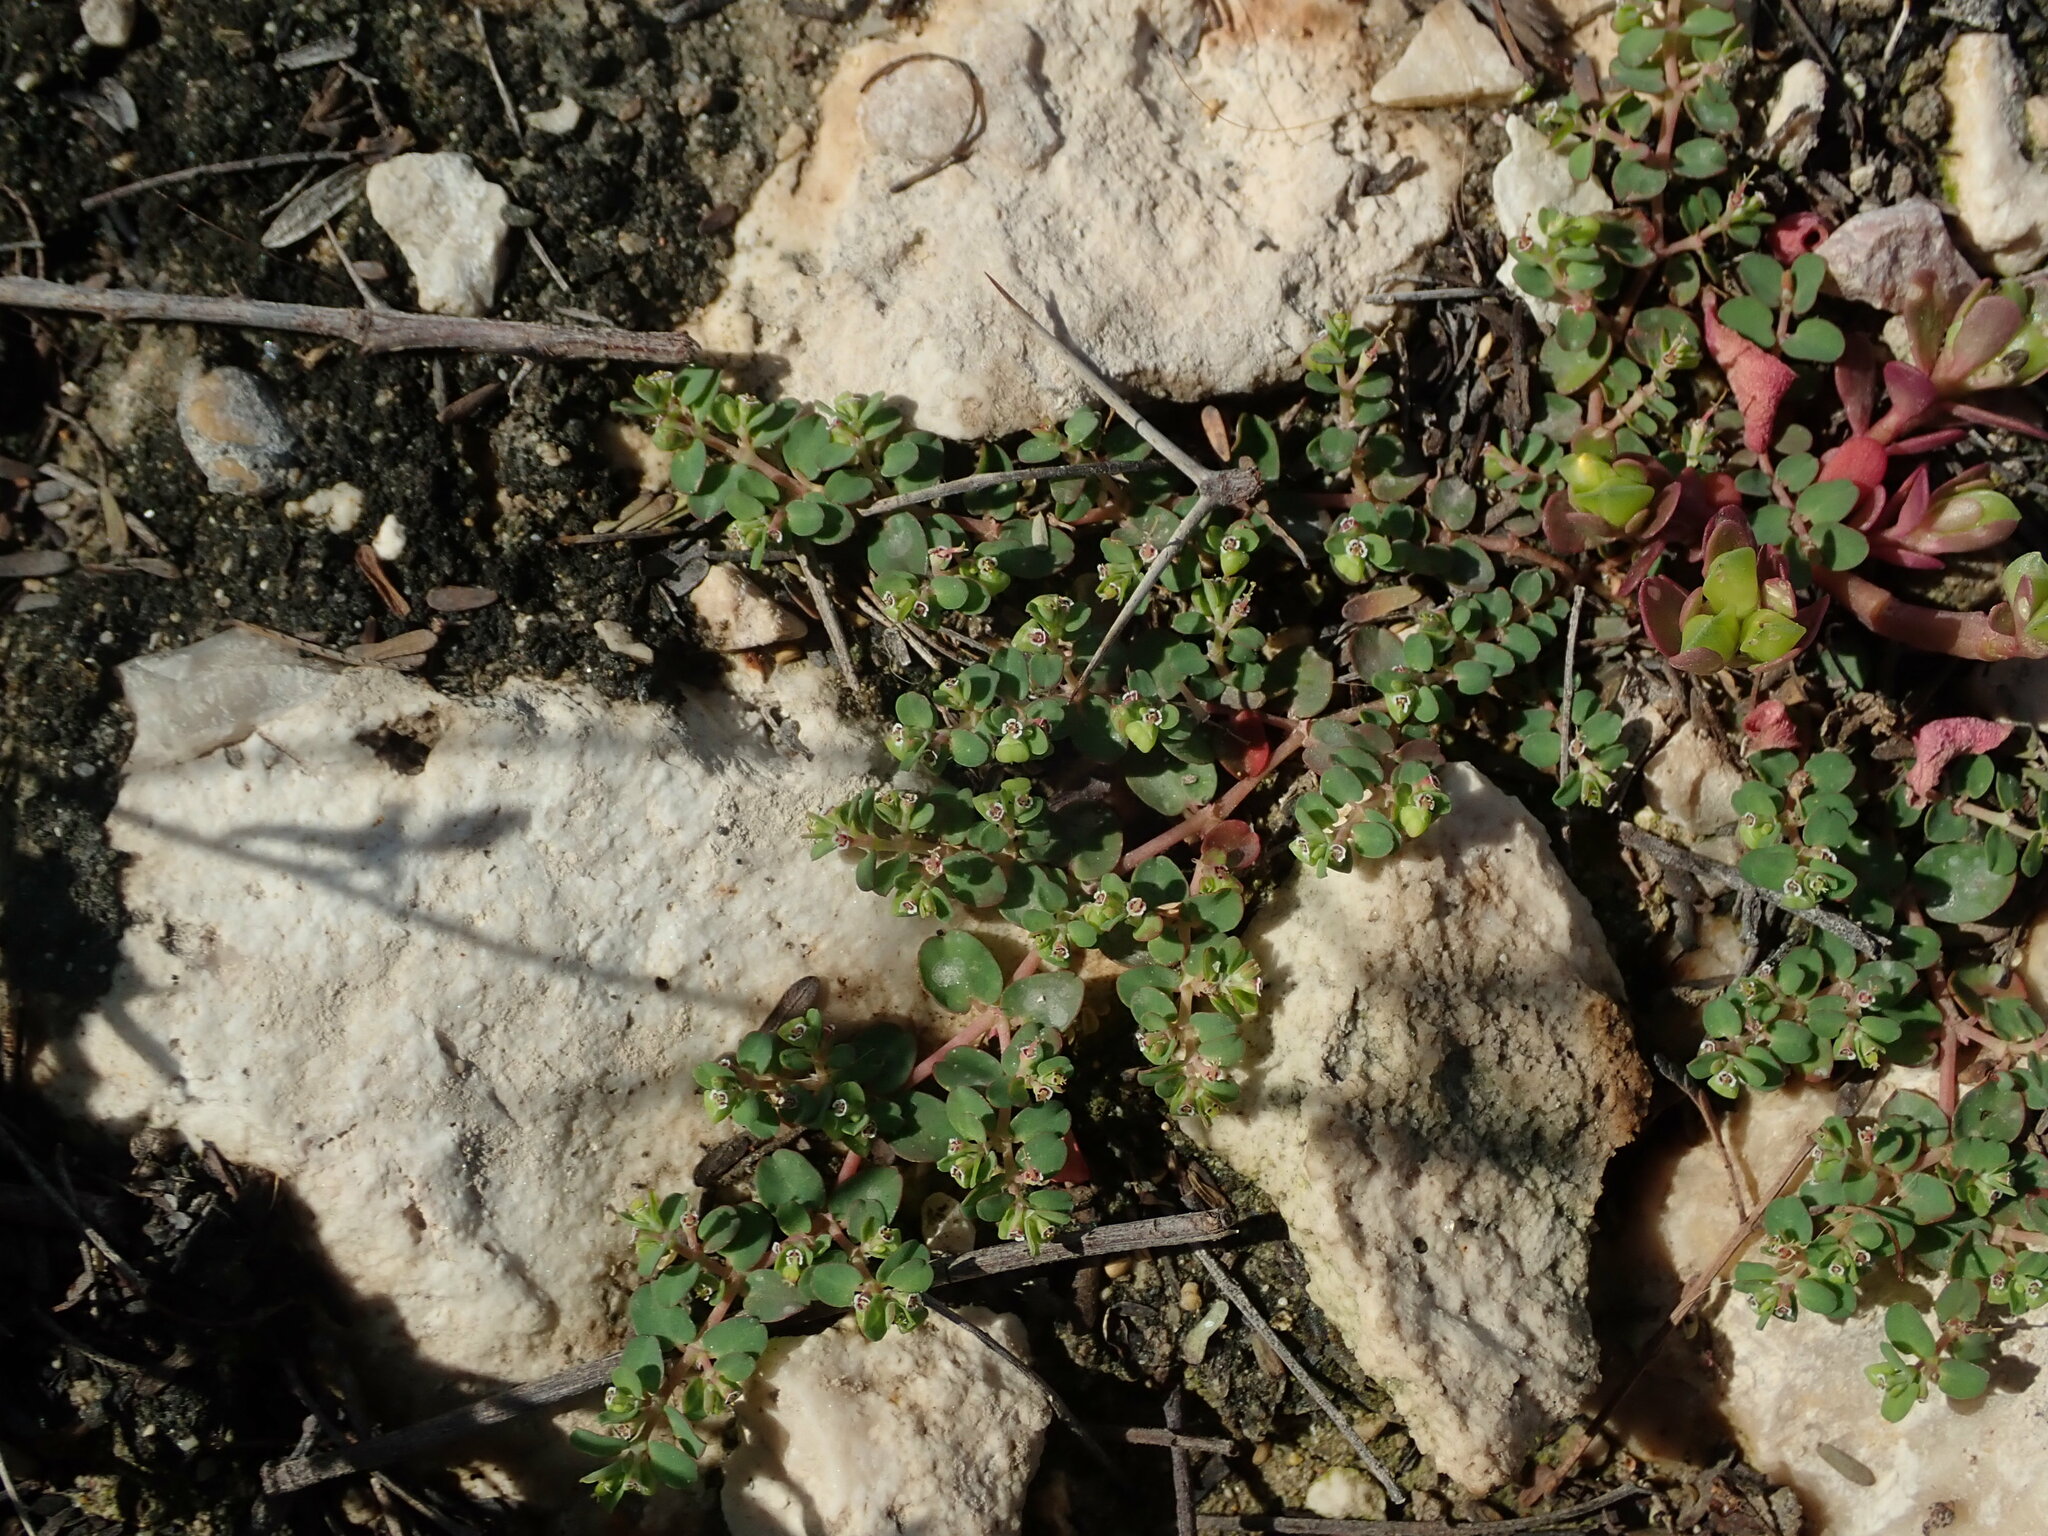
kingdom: Plantae
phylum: Tracheophyta
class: Magnoliopsida
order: Malpighiales
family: Euphorbiaceae
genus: Euphorbia
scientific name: Euphorbia serpens
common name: Matted sandmat
